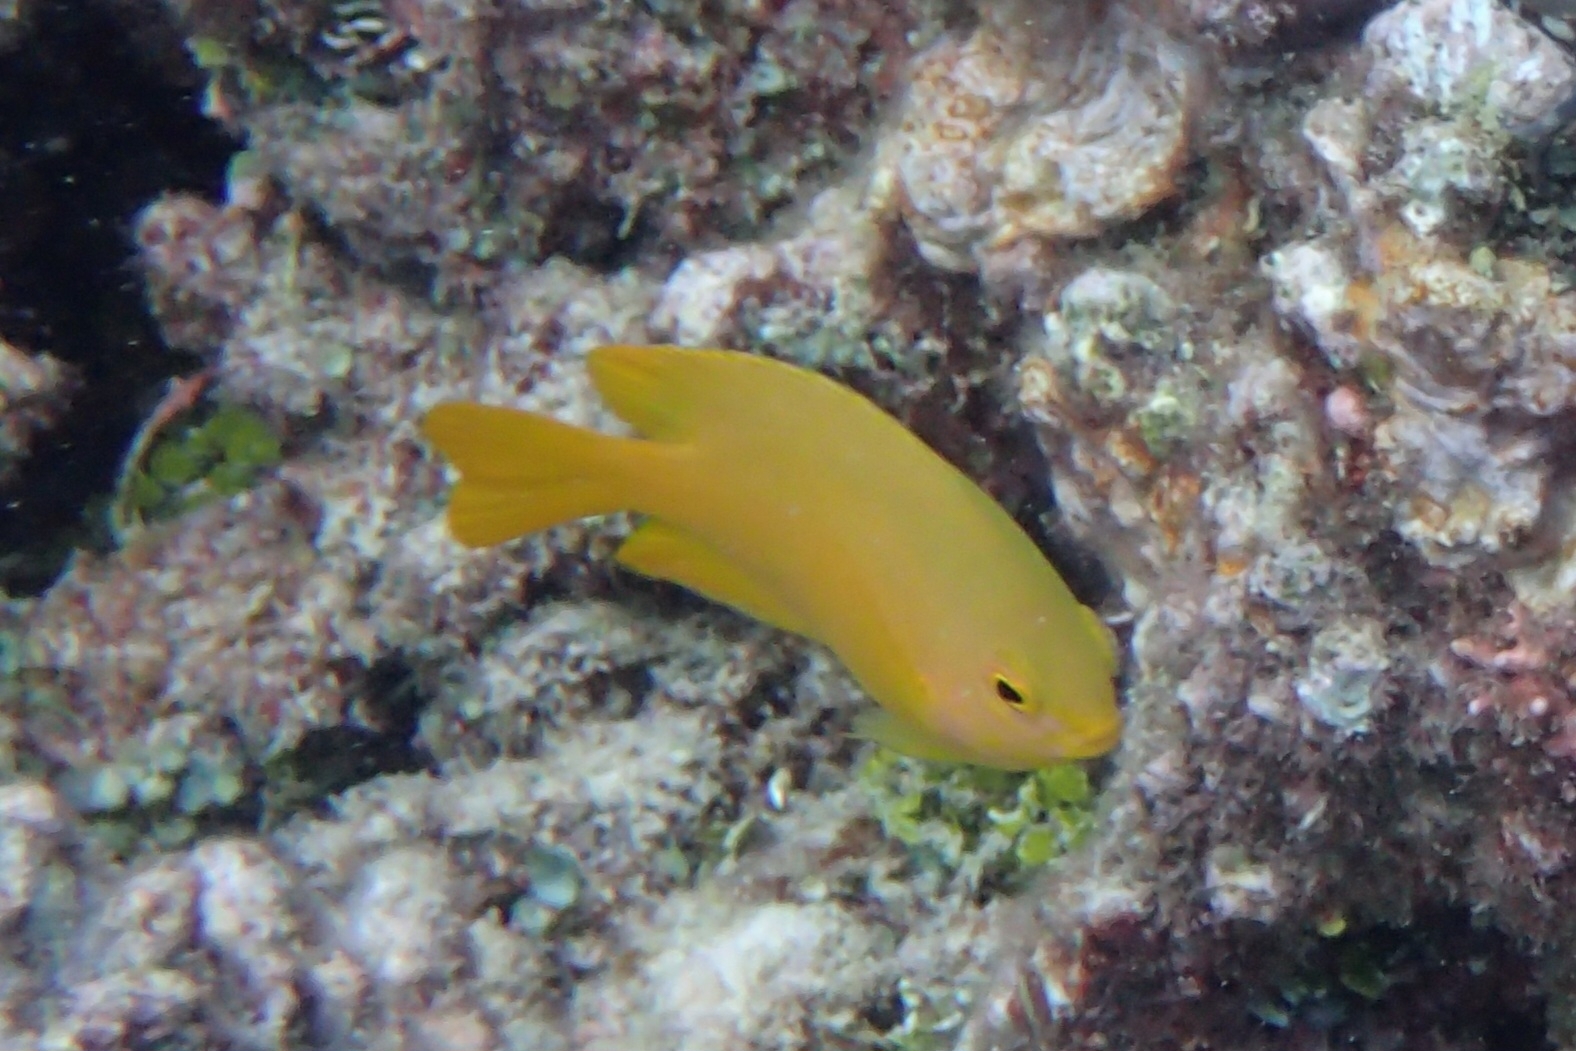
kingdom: Animalia
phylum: Chordata
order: Perciformes
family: Pomacentridae
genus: Pomacentrus
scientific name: Pomacentrus moluccensis
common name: Lemon damsel
